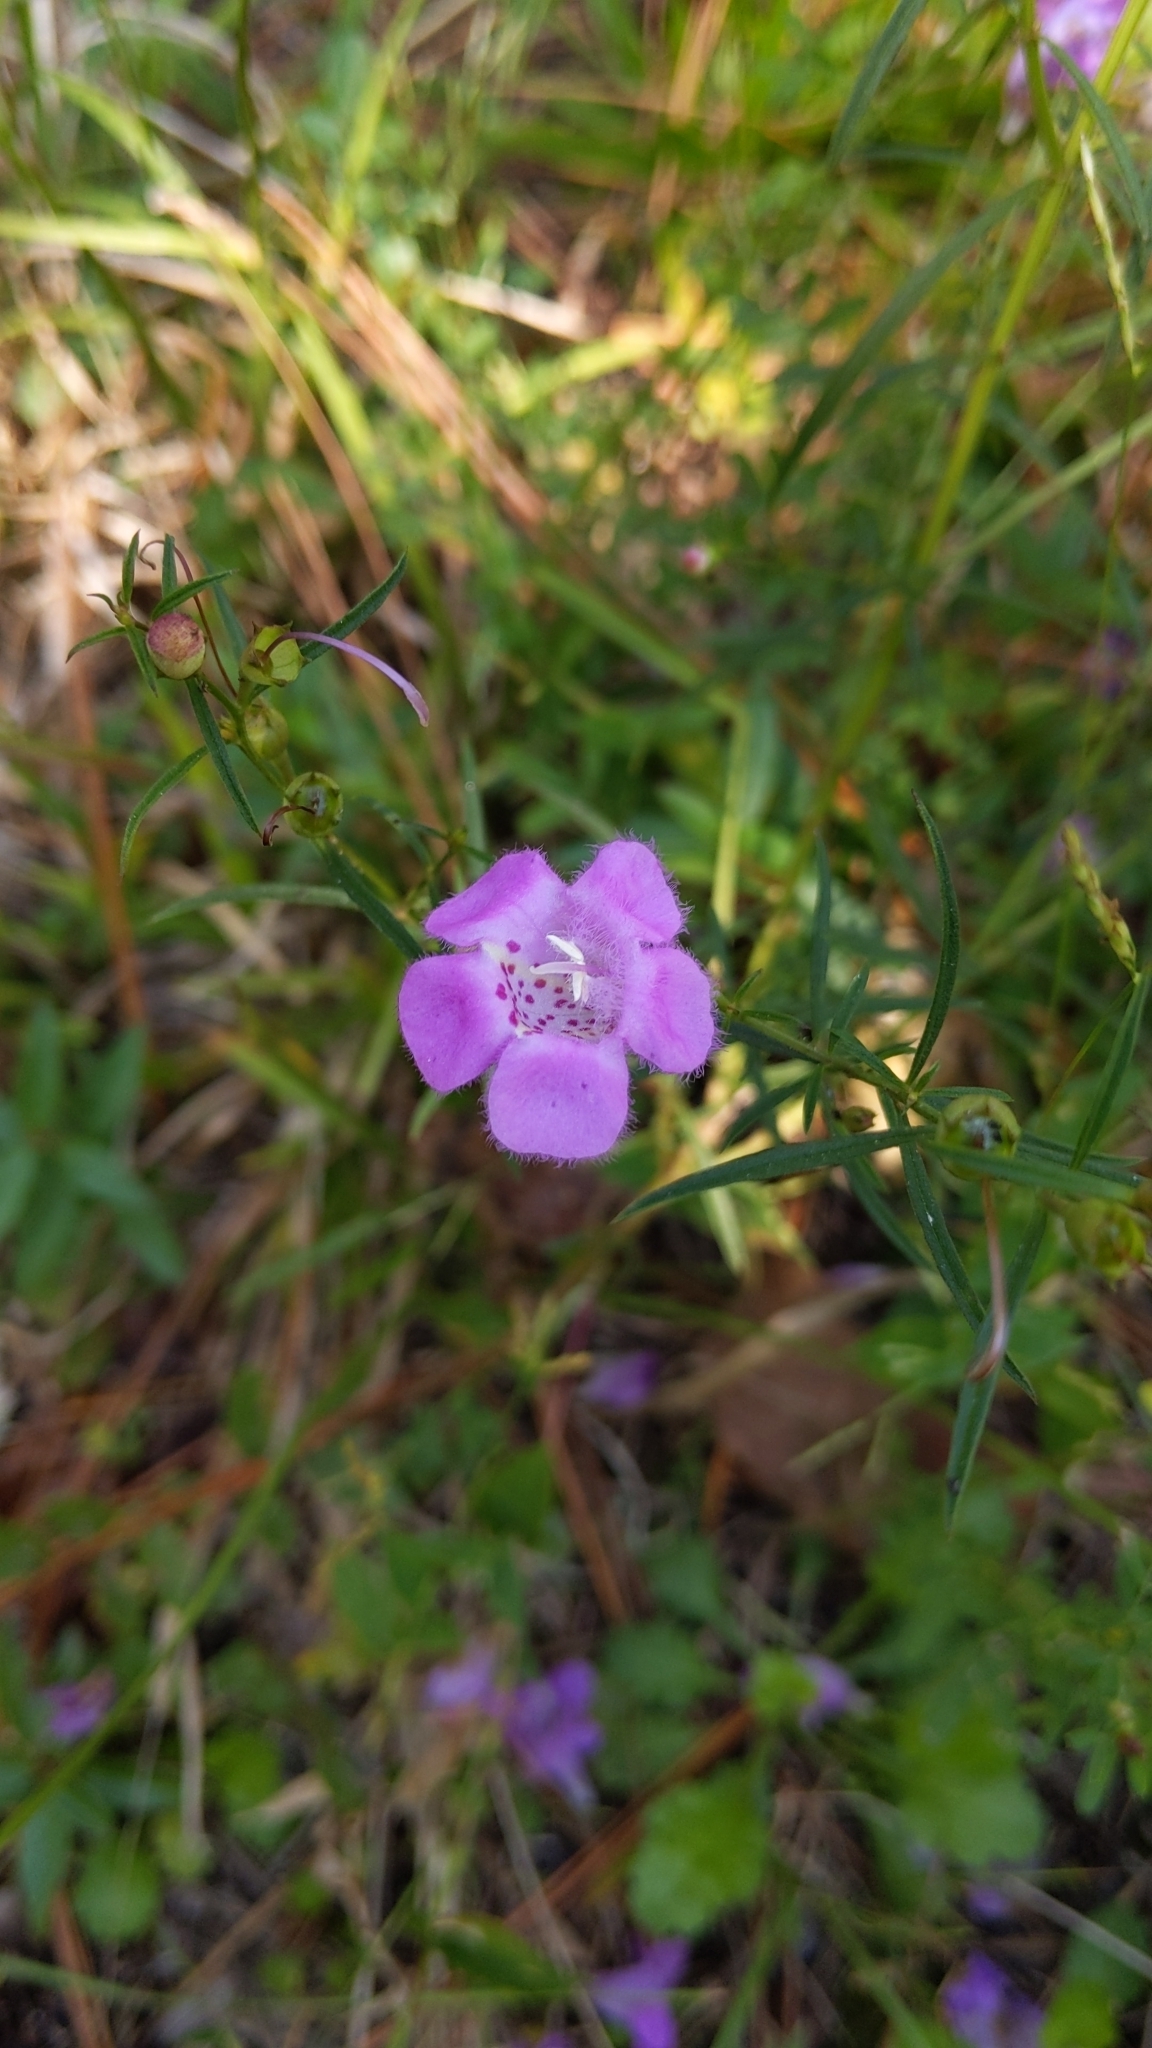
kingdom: Plantae
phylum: Tracheophyta
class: Magnoliopsida
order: Lamiales
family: Orobanchaceae
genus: Agalinis
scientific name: Agalinis purpurea
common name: Purple false foxglove
